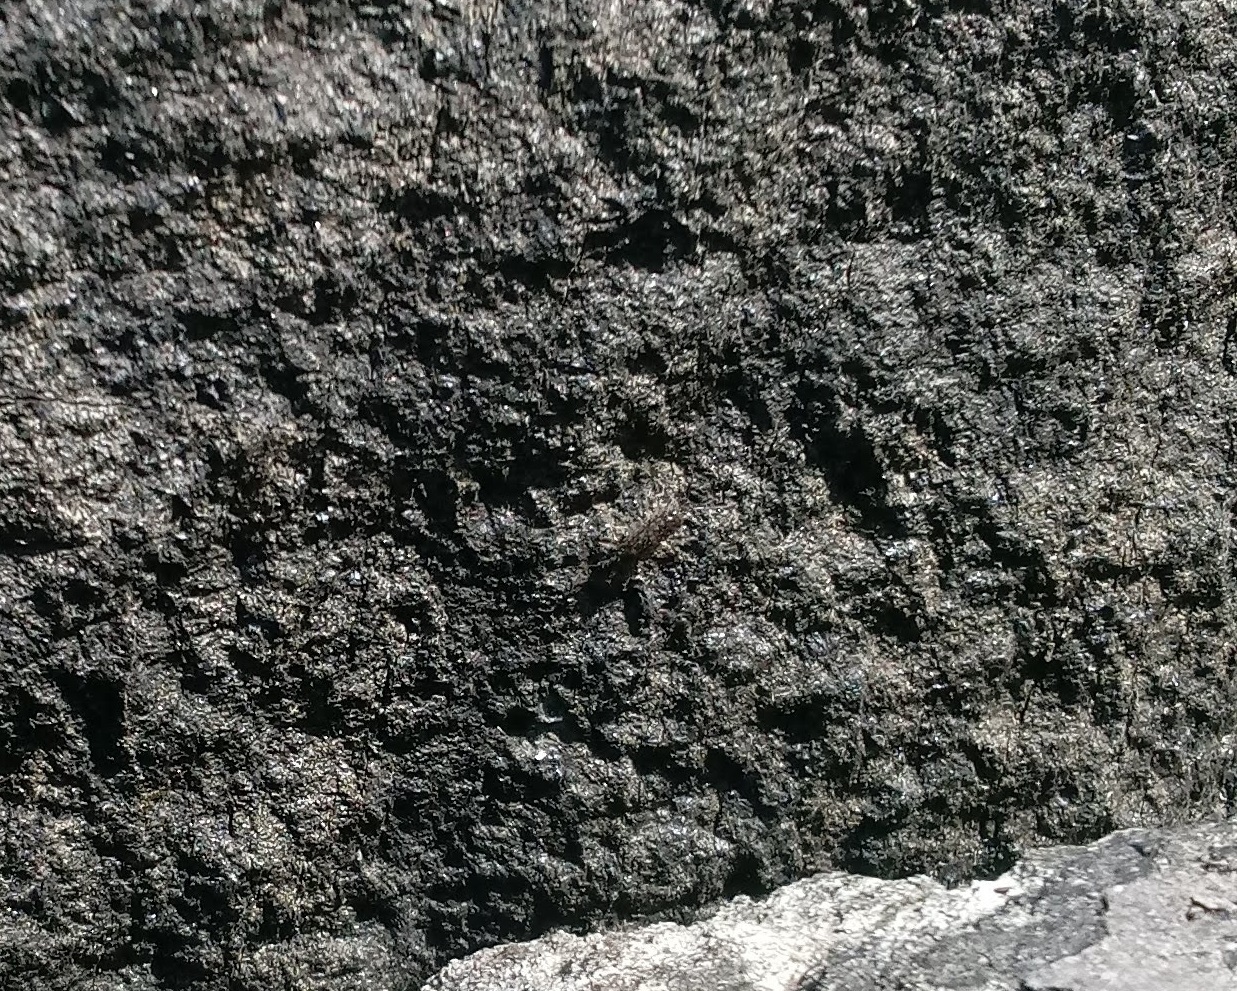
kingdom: Animalia
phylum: Arthropoda
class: Malacostraca
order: Isopoda
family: Ligiidae
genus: Ligia
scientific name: Ligia exotica
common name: Wharf roach
